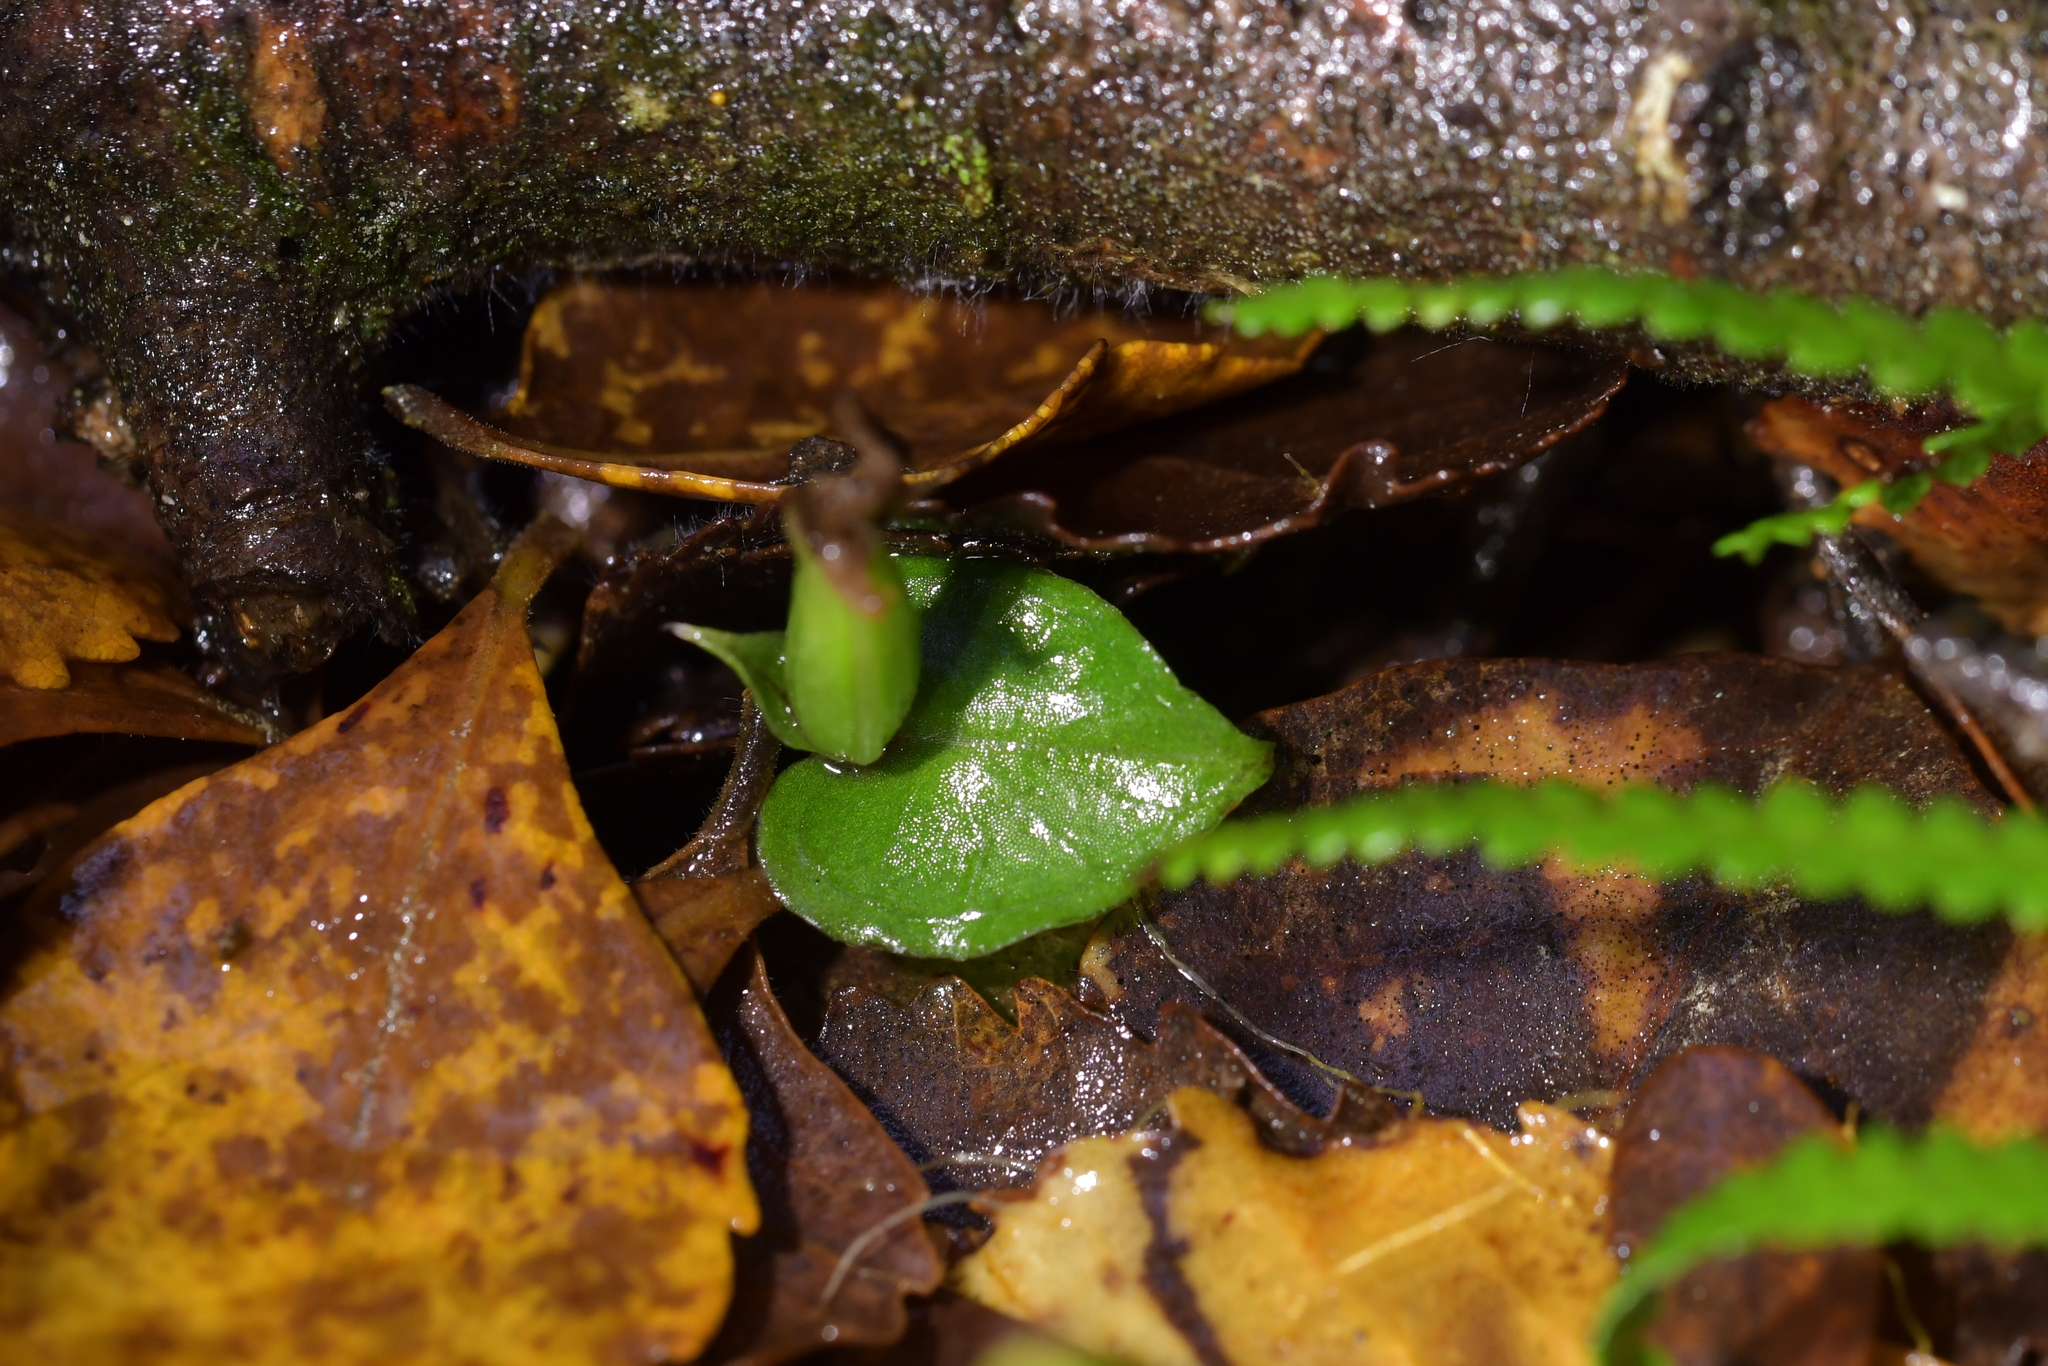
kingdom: Plantae
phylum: Tracheophyta
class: Liliopsida
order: Asparagales
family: Orchidaceae
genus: Corybas
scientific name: Corybas cheesemanii
